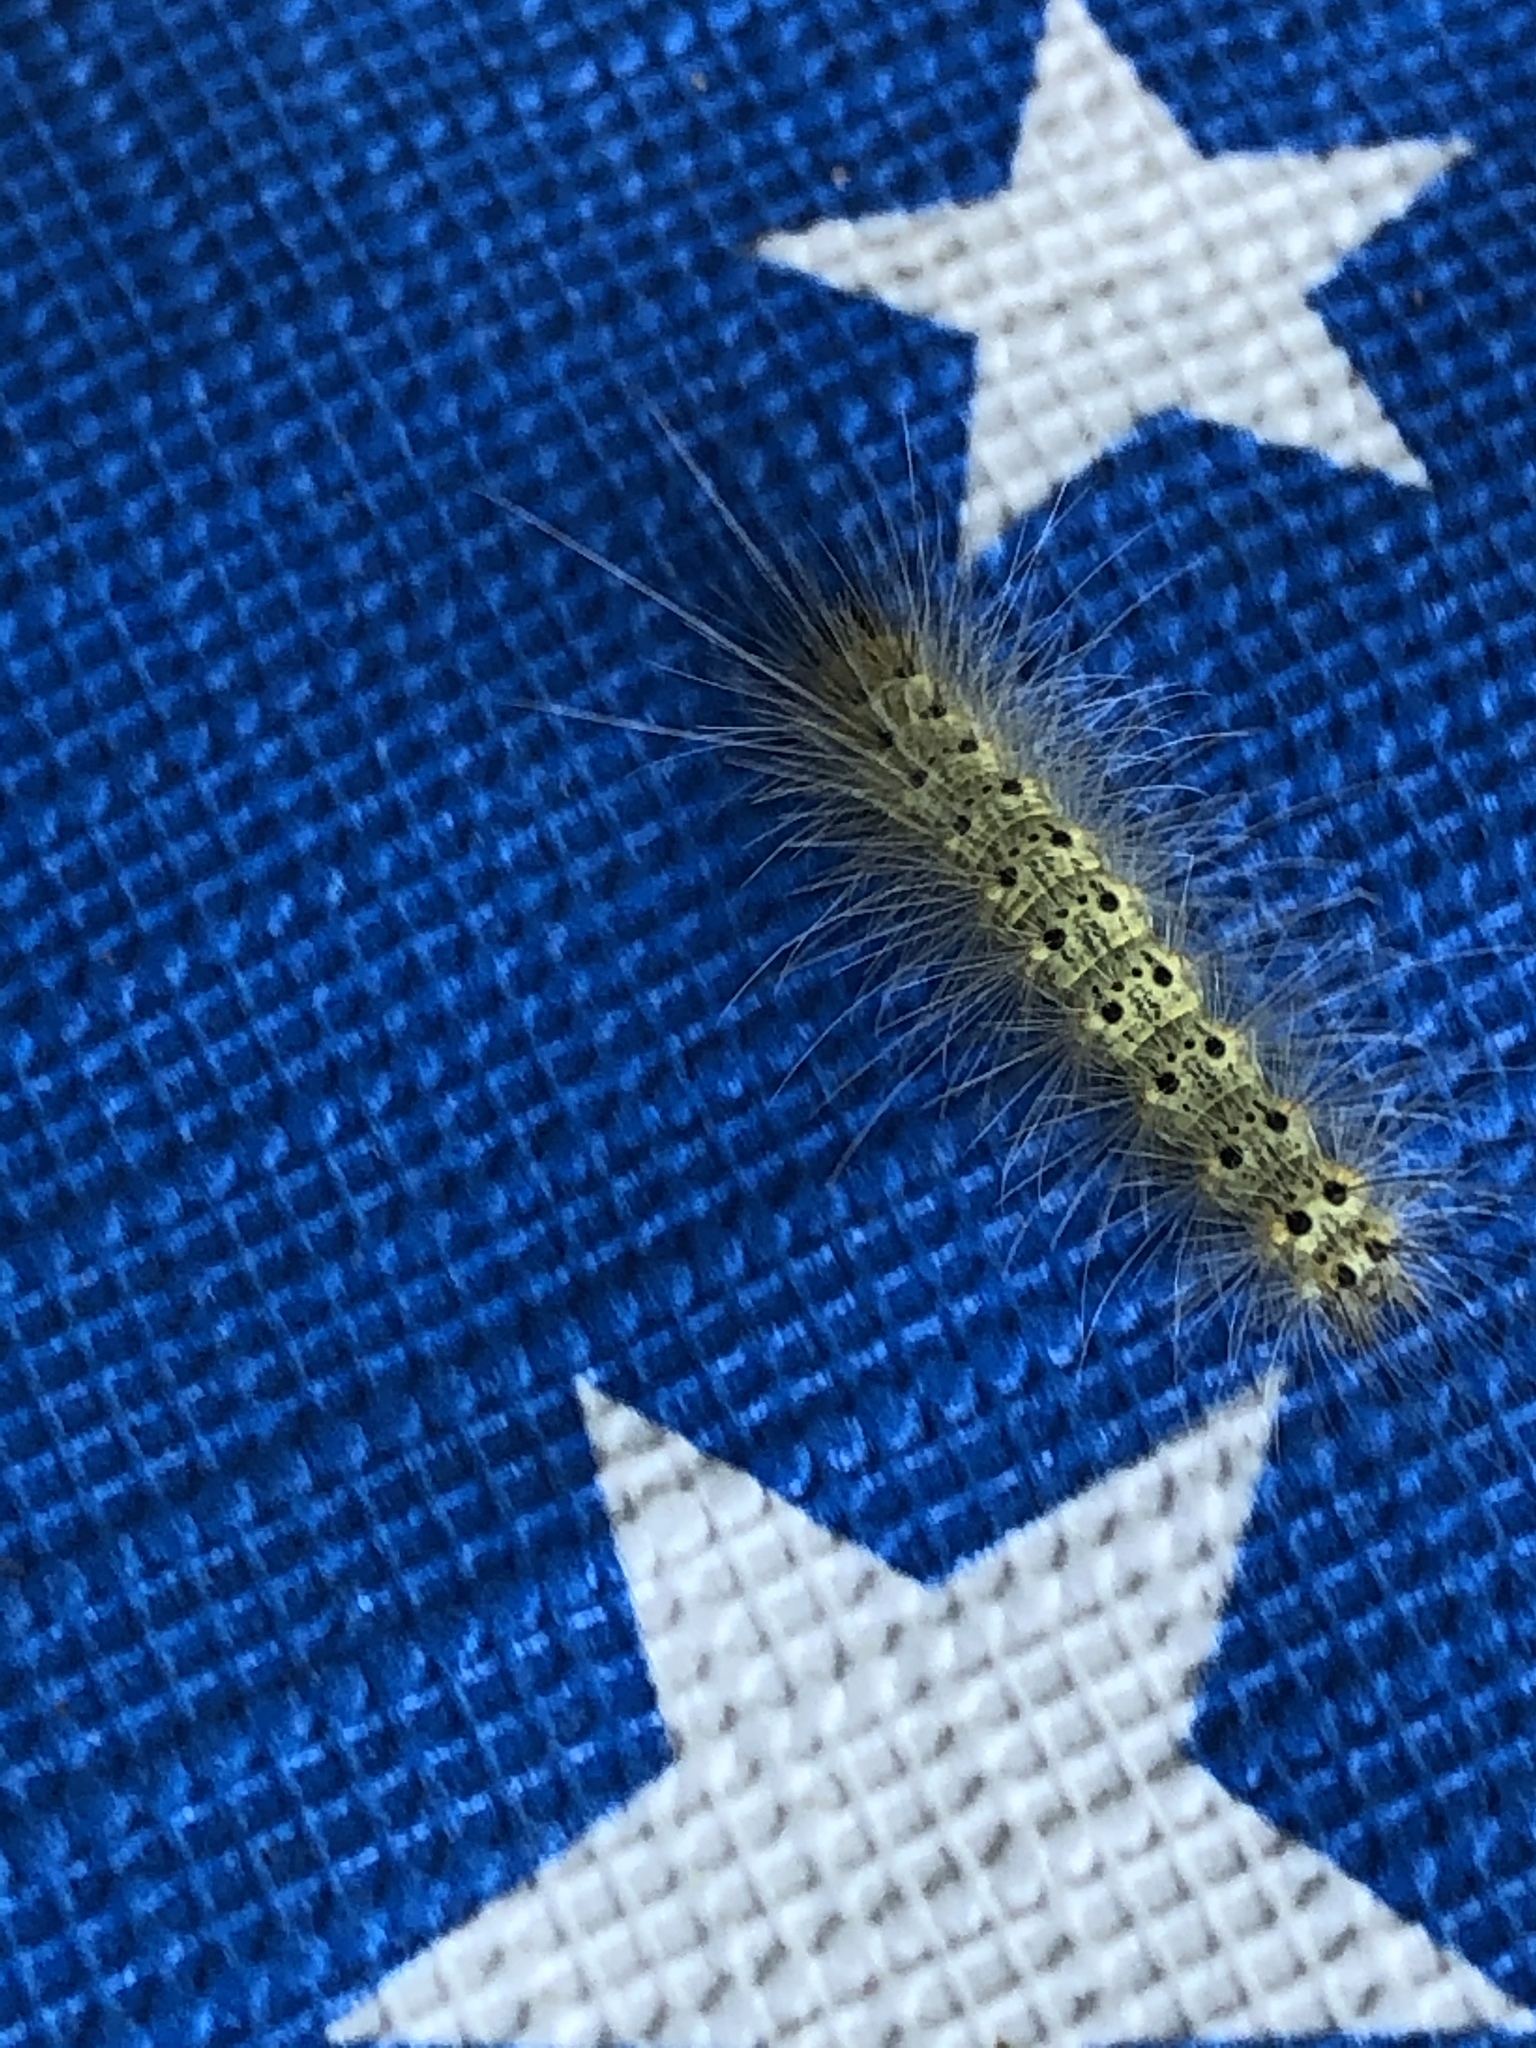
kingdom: Animalia
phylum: Arthropoda
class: Insecta
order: Lepidoptera
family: Erebidae
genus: Hyphantria
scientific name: Hyphantria cunea
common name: American white moth
